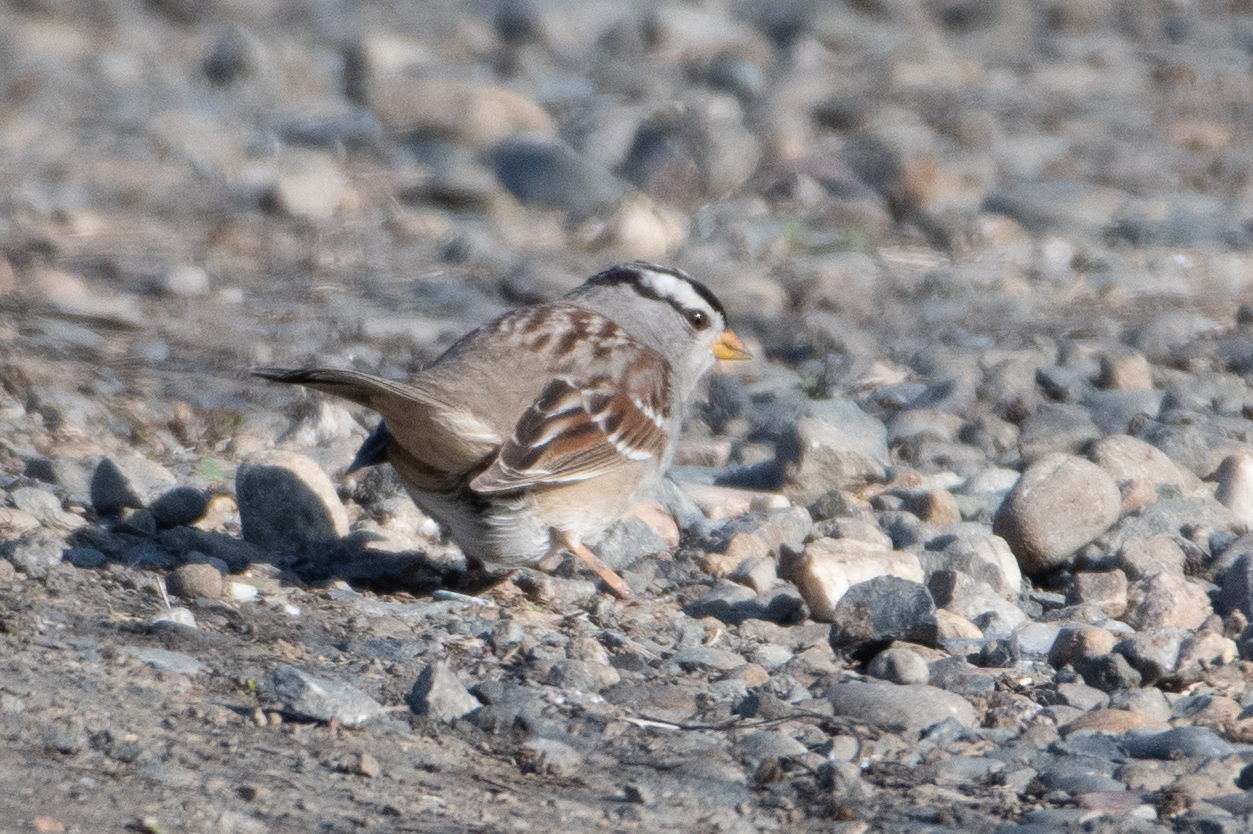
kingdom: Animalia
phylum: Chordata
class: Aves
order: Passeriformes
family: Passerellidae
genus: Zonotrichia
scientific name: Zonotrichia leucophrys
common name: White-crowned sparrow
